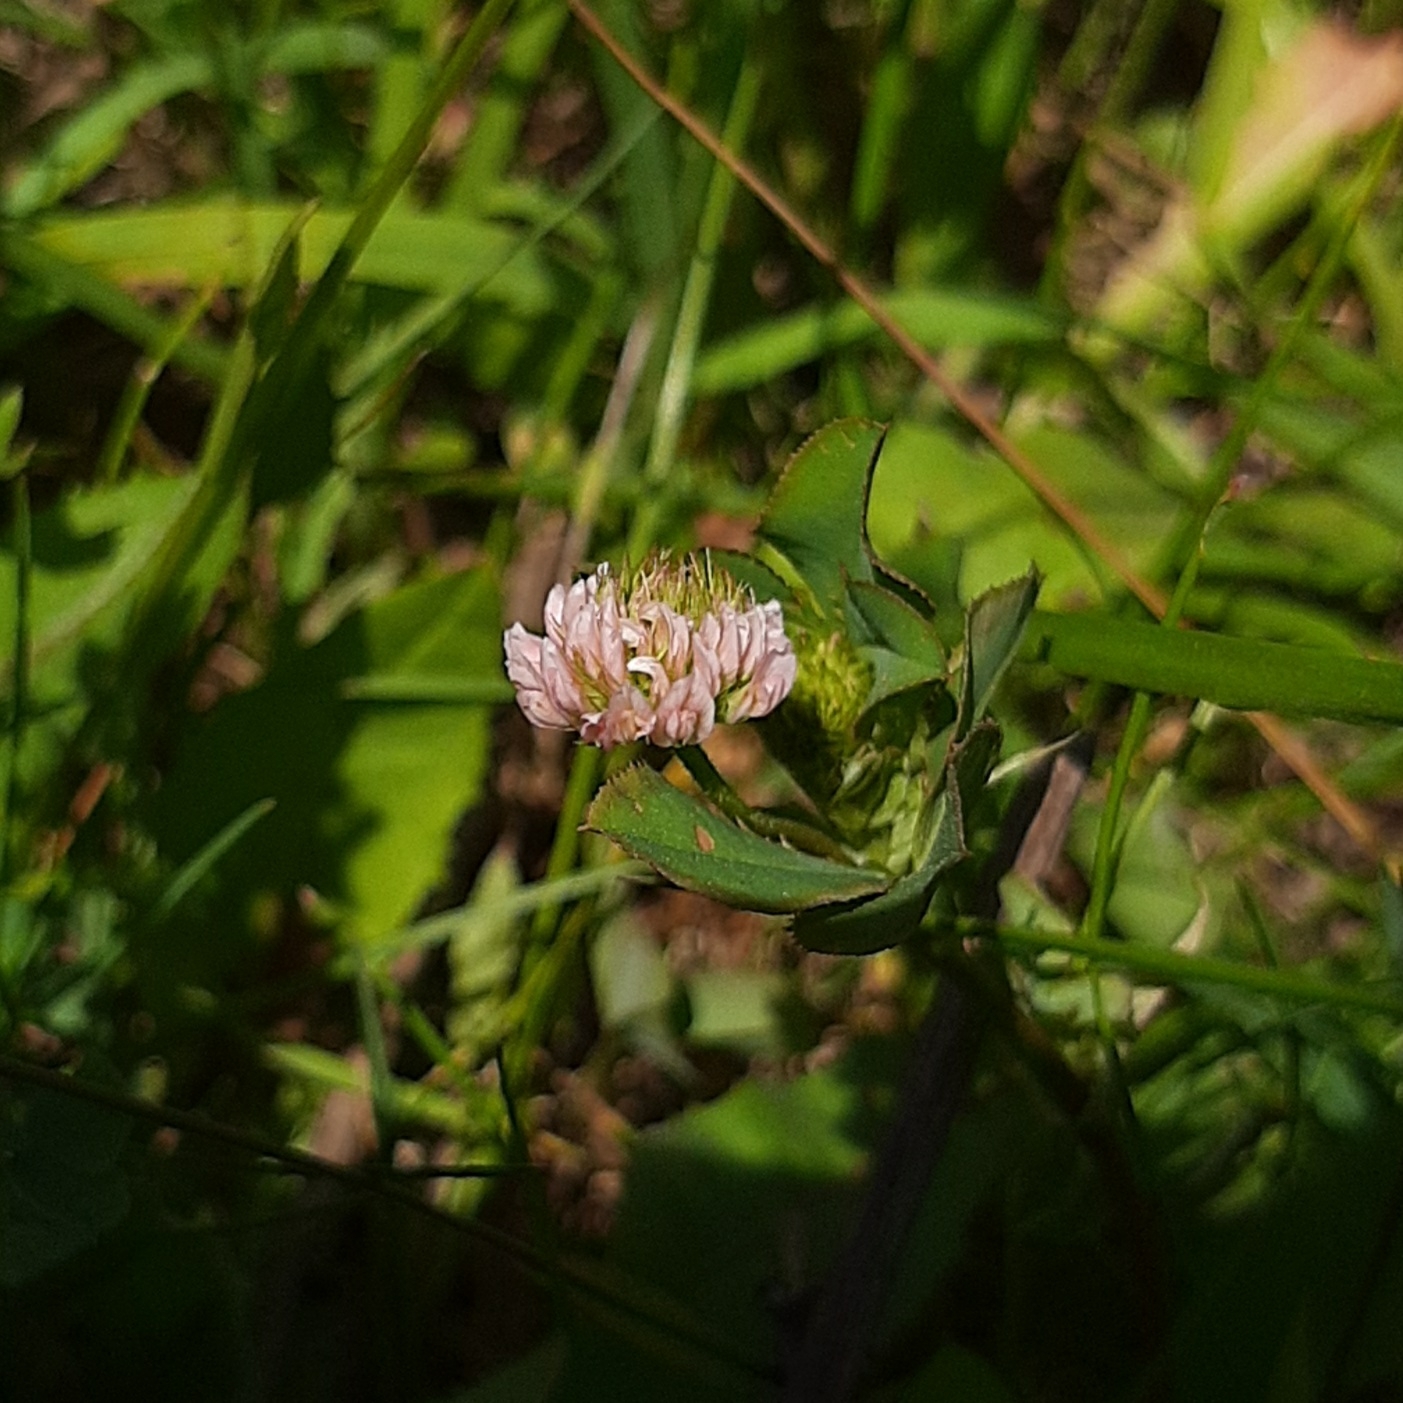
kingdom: Plantae
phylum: Tracheophyta
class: Magnoliopsida
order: Fabales
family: Fabaceae
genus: Trifolium
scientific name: Trifolium hybridum
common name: Alsike clover
